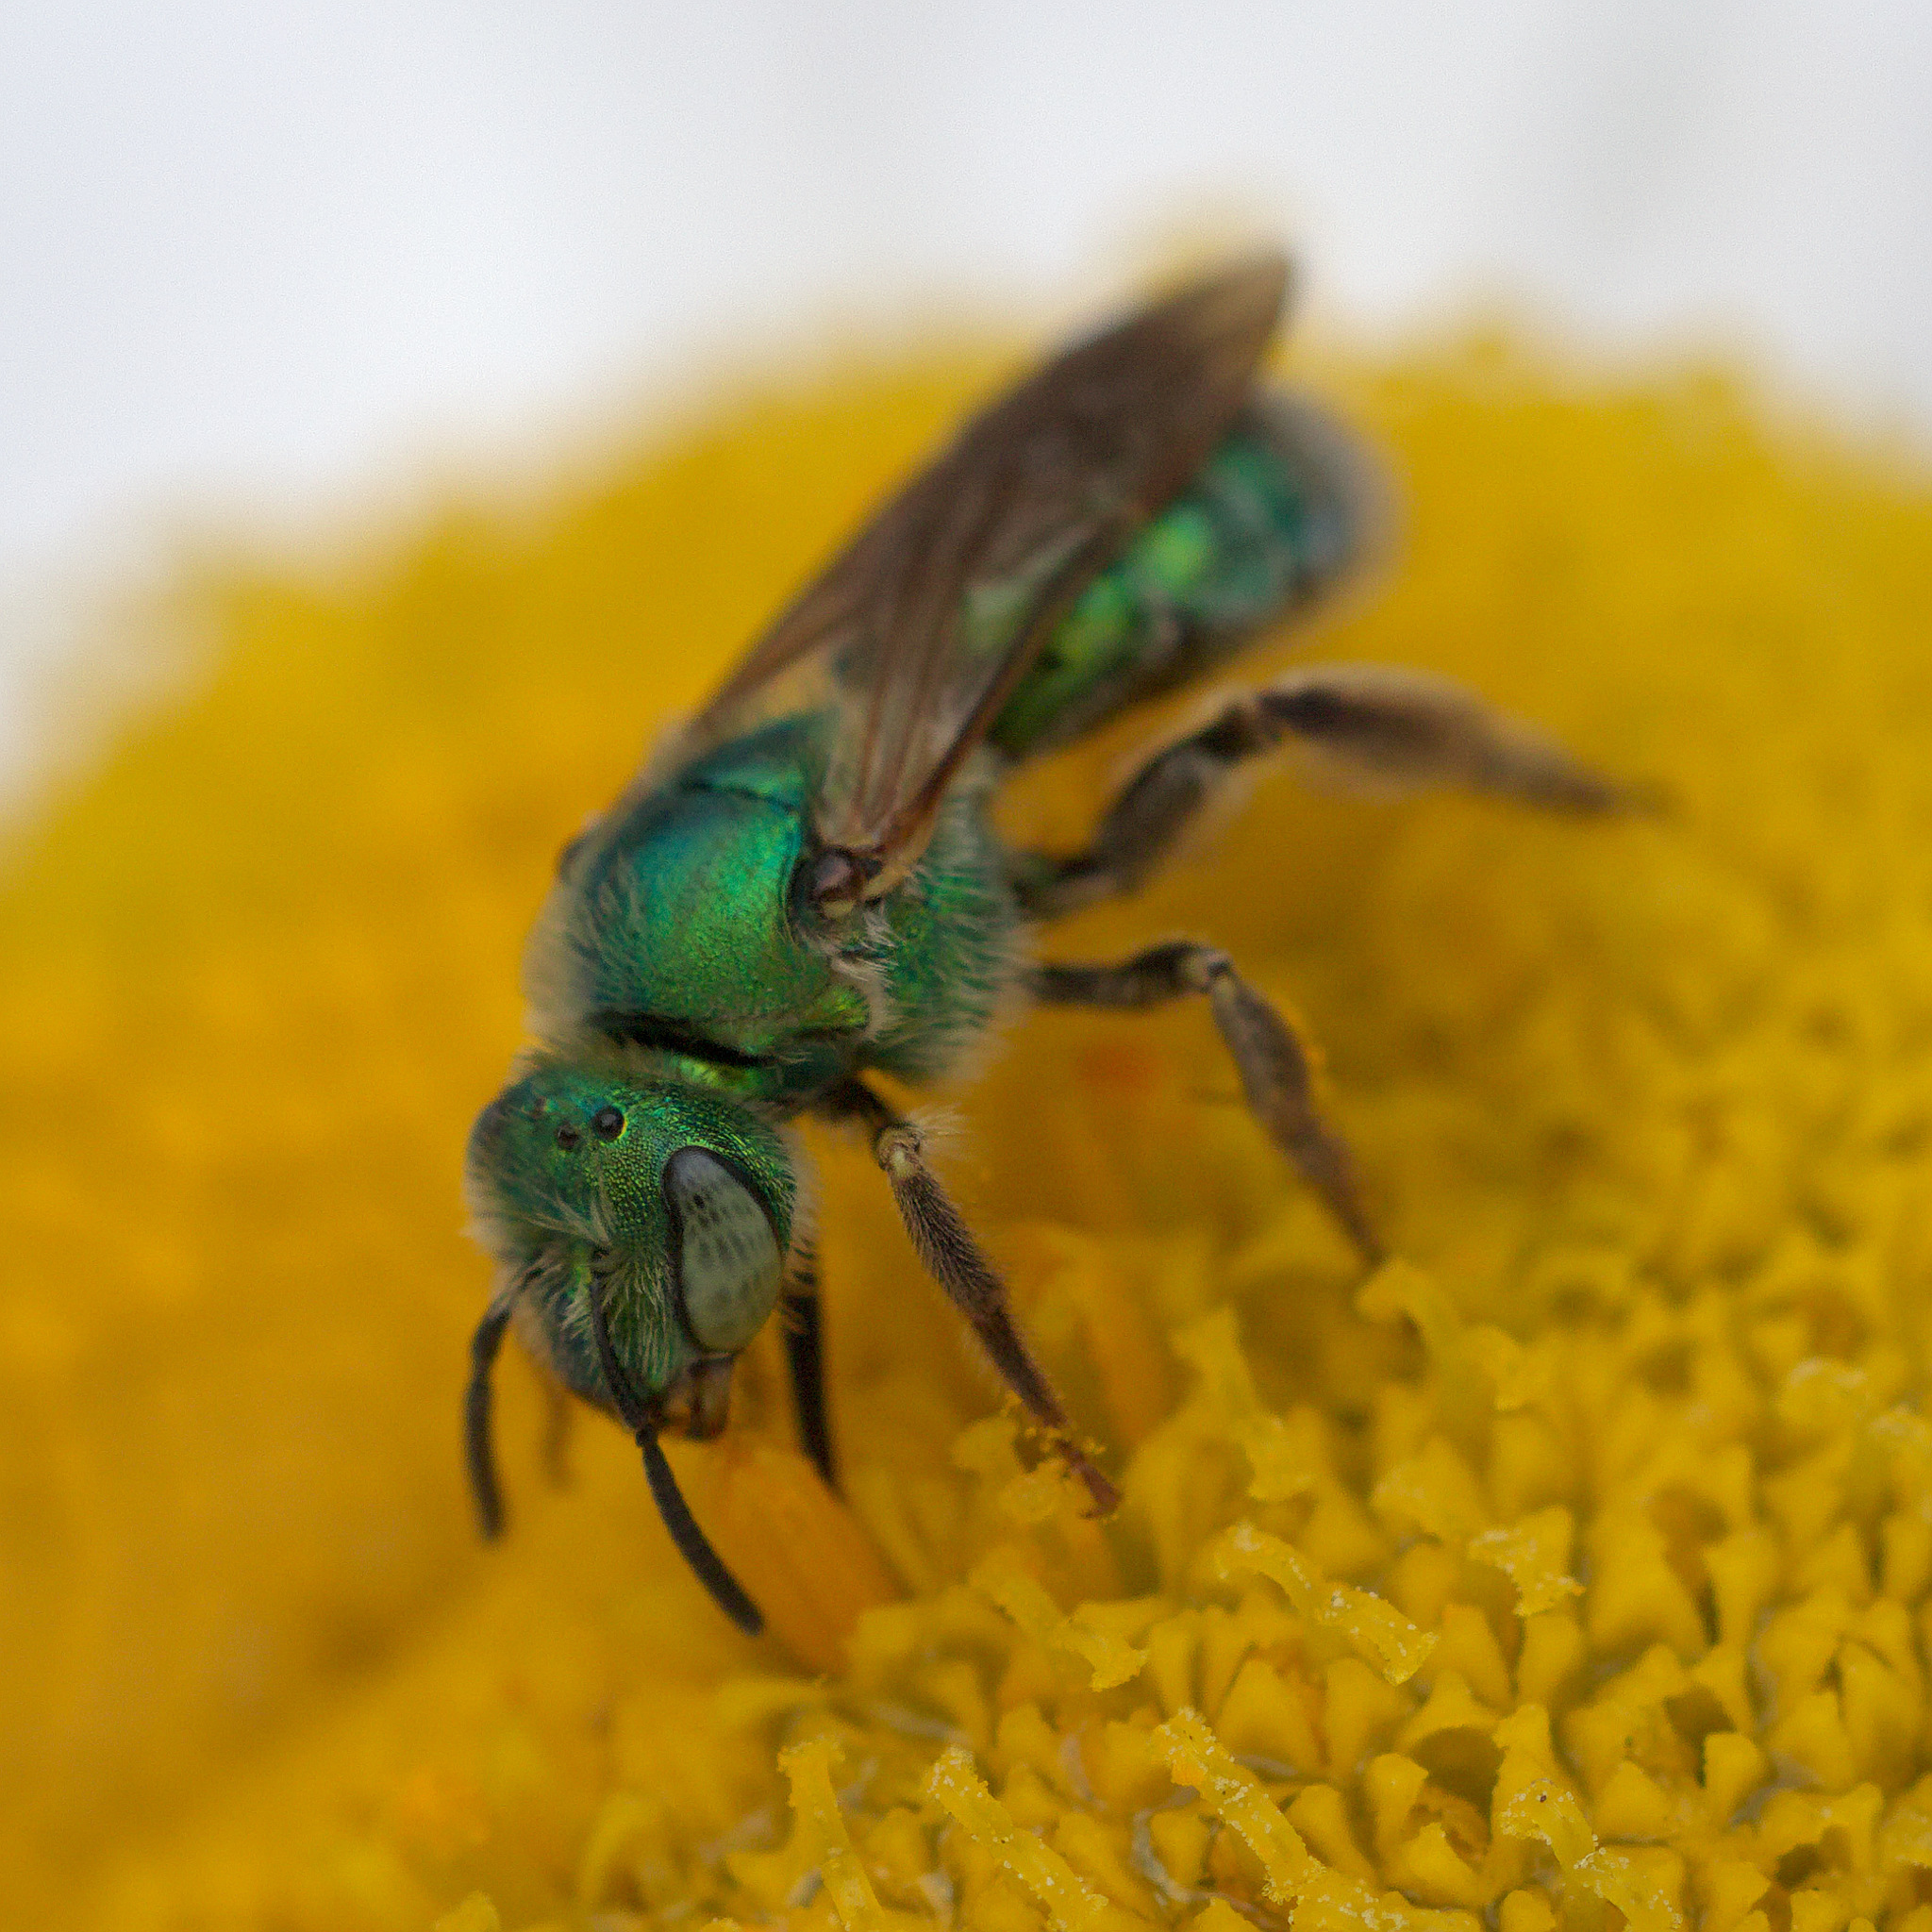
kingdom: Animalia
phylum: Arthropoda
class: Insecta
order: Hymenoptera
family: Halictidae
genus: Agapostemon
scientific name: Agapostemon texanus
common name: Texas striped sweat bee
